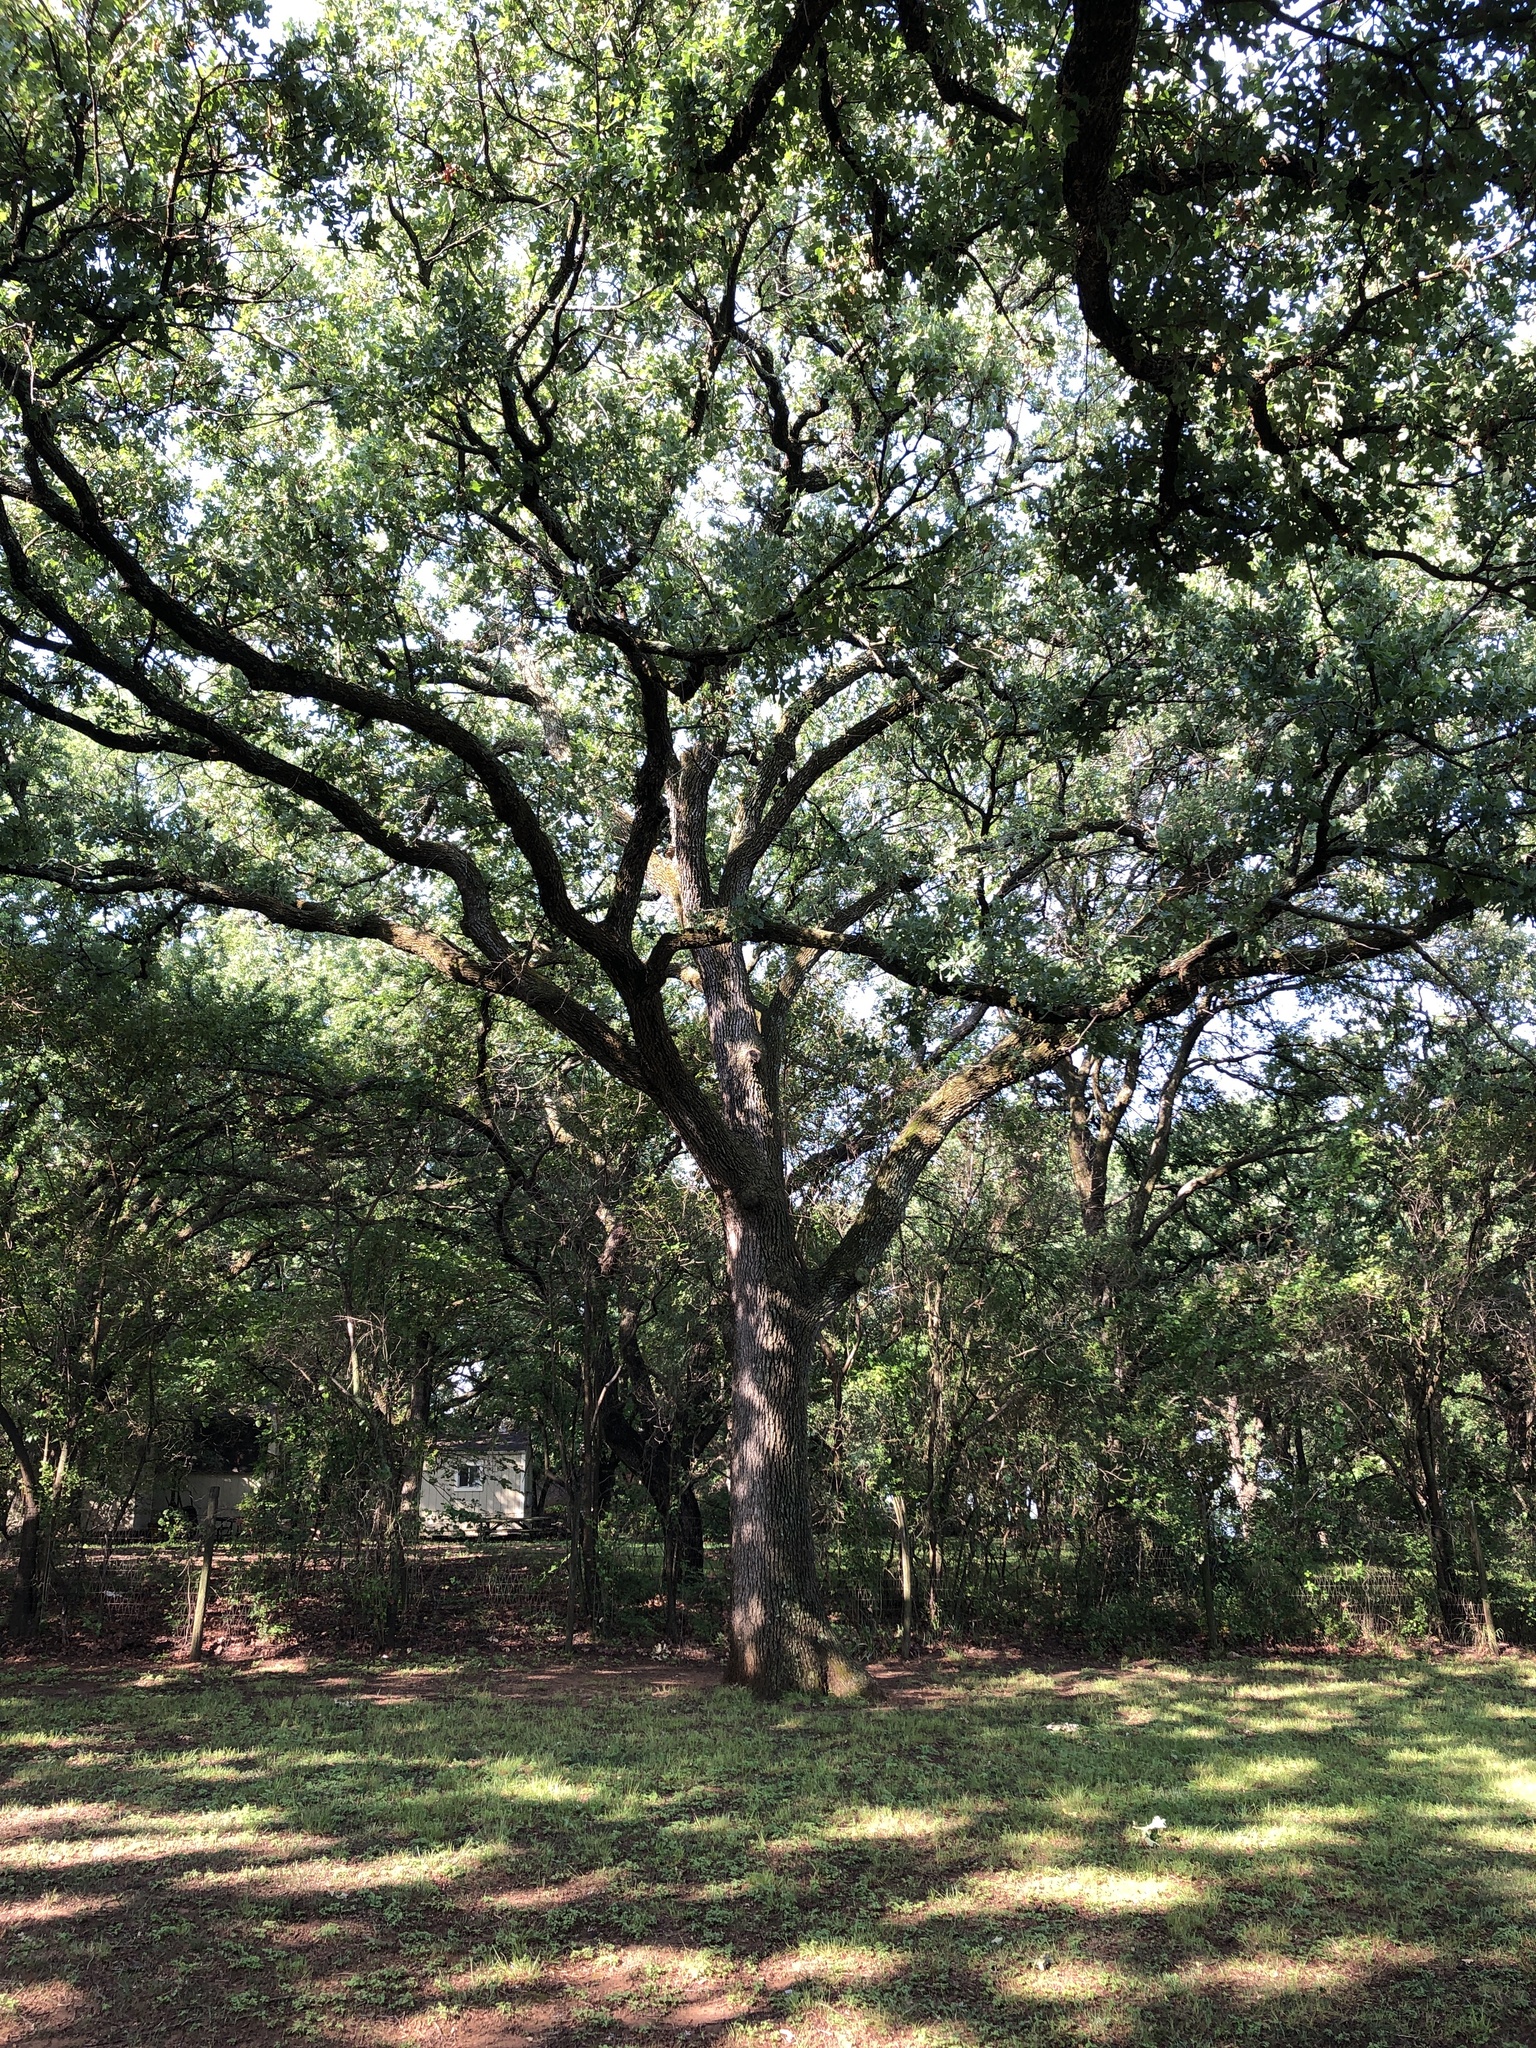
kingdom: Plantae
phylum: Tracheophyta
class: Magnoliopsida
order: Fagales
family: Fagaceae
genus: Quercus
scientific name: Quercus stellata
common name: Post oak
